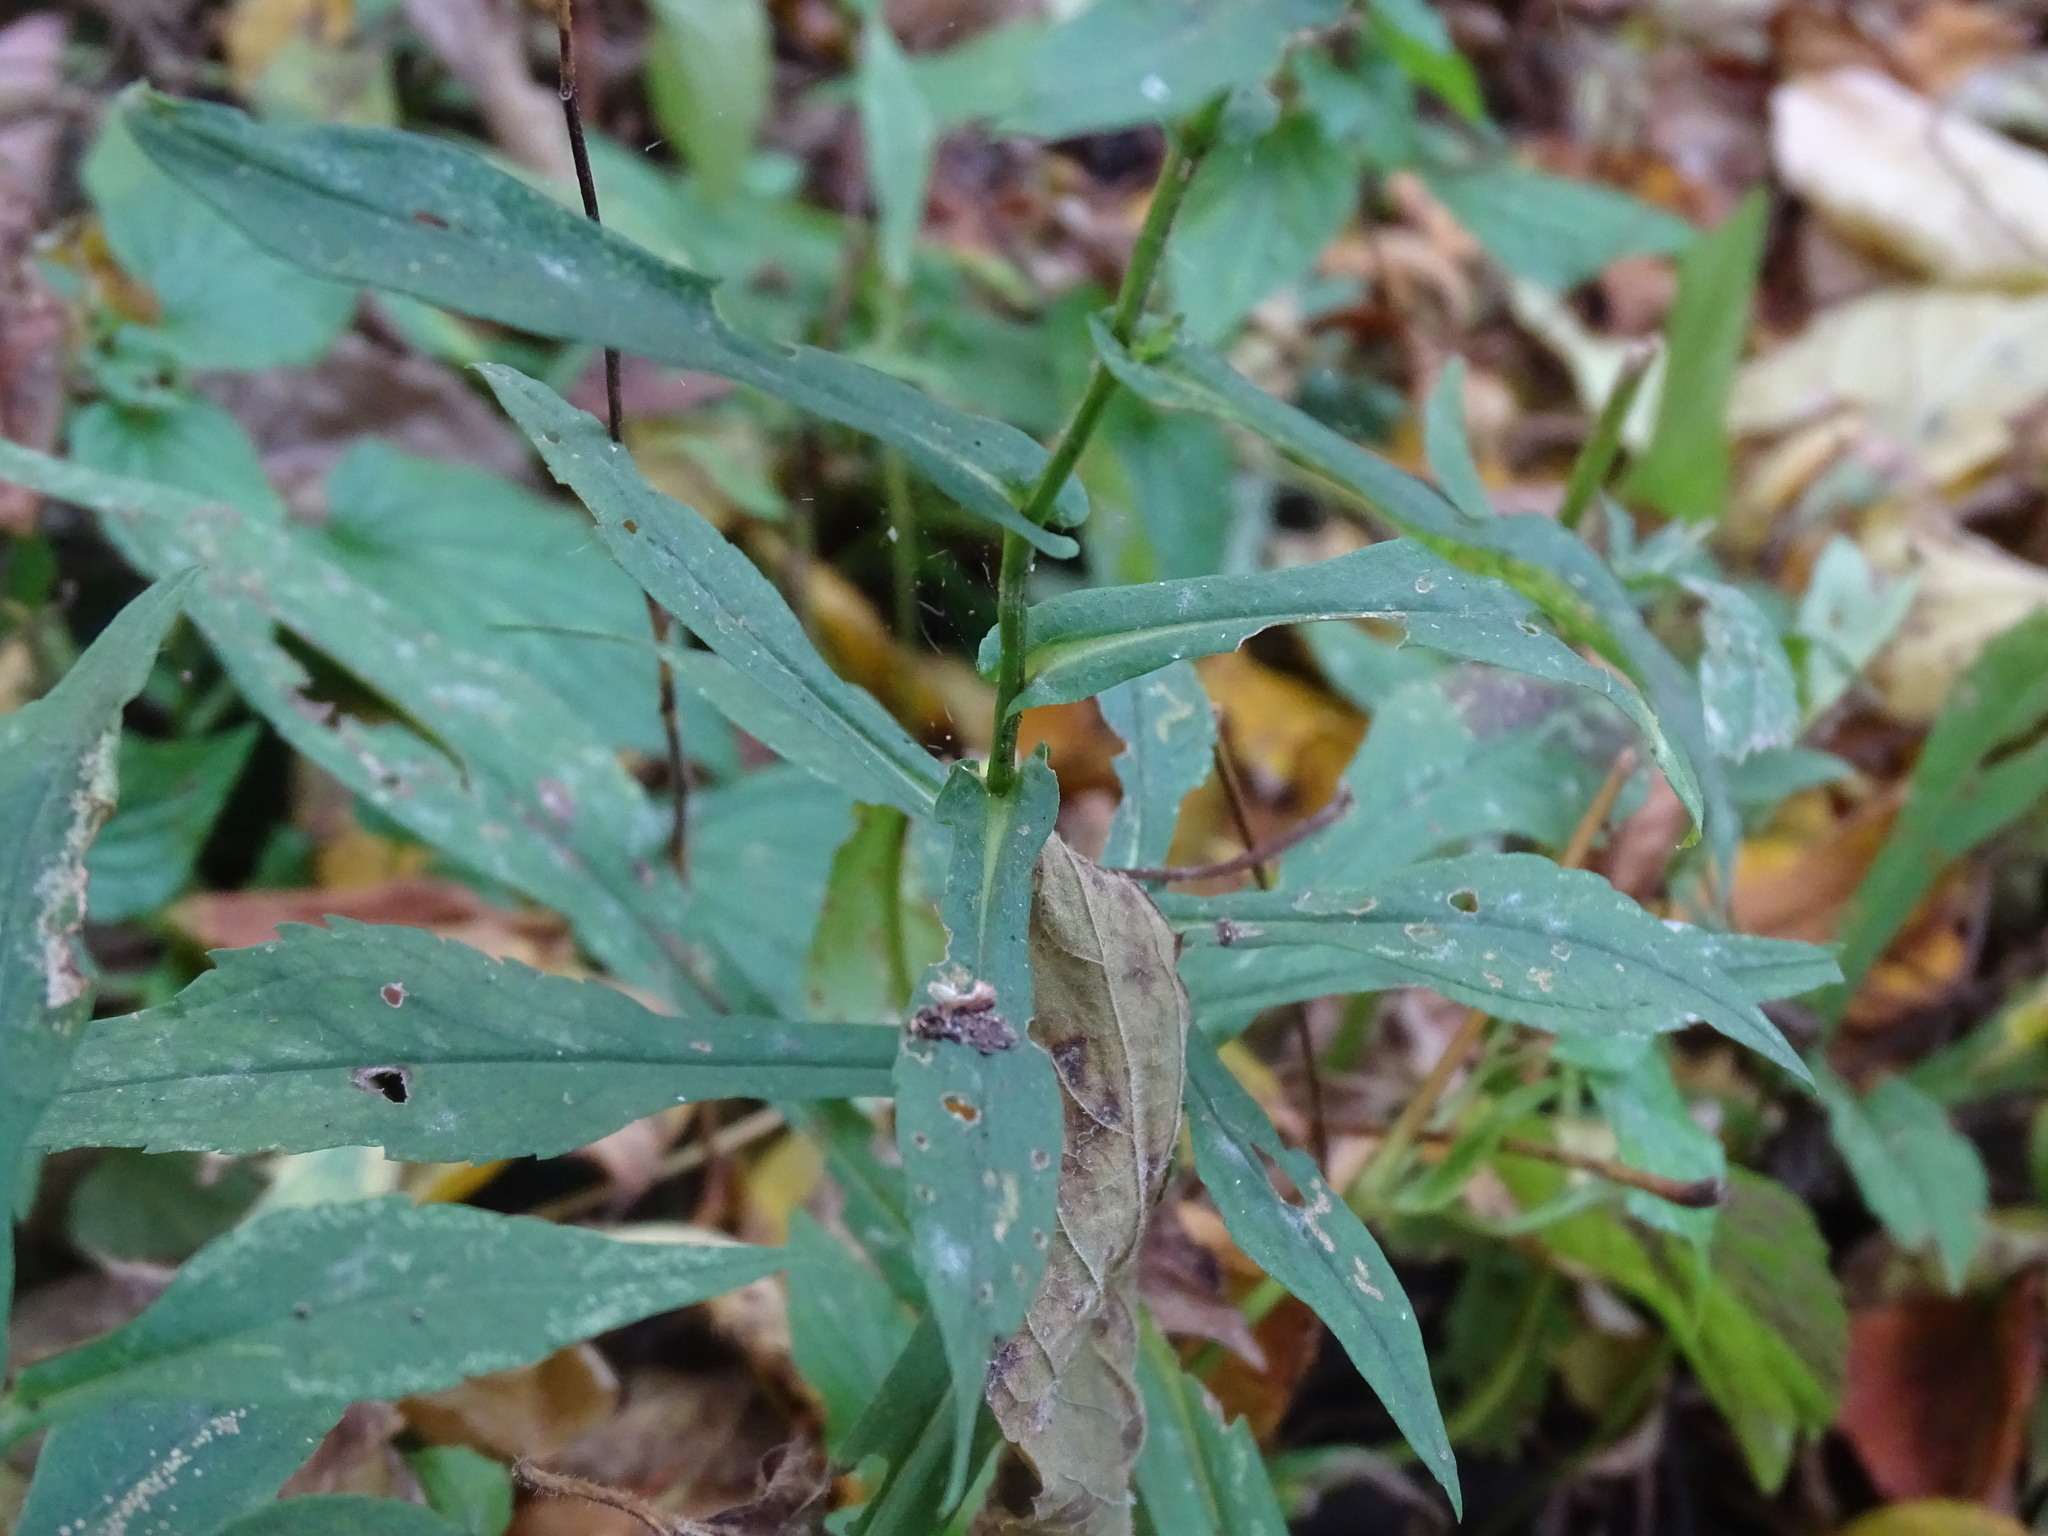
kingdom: Plantae
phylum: Tracheophyta
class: Magnoliopsida
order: Asterales
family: Asteraceae
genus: Symphyotrichum
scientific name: Symphyotrichum prenanthoides
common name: Crooked-stem aster
